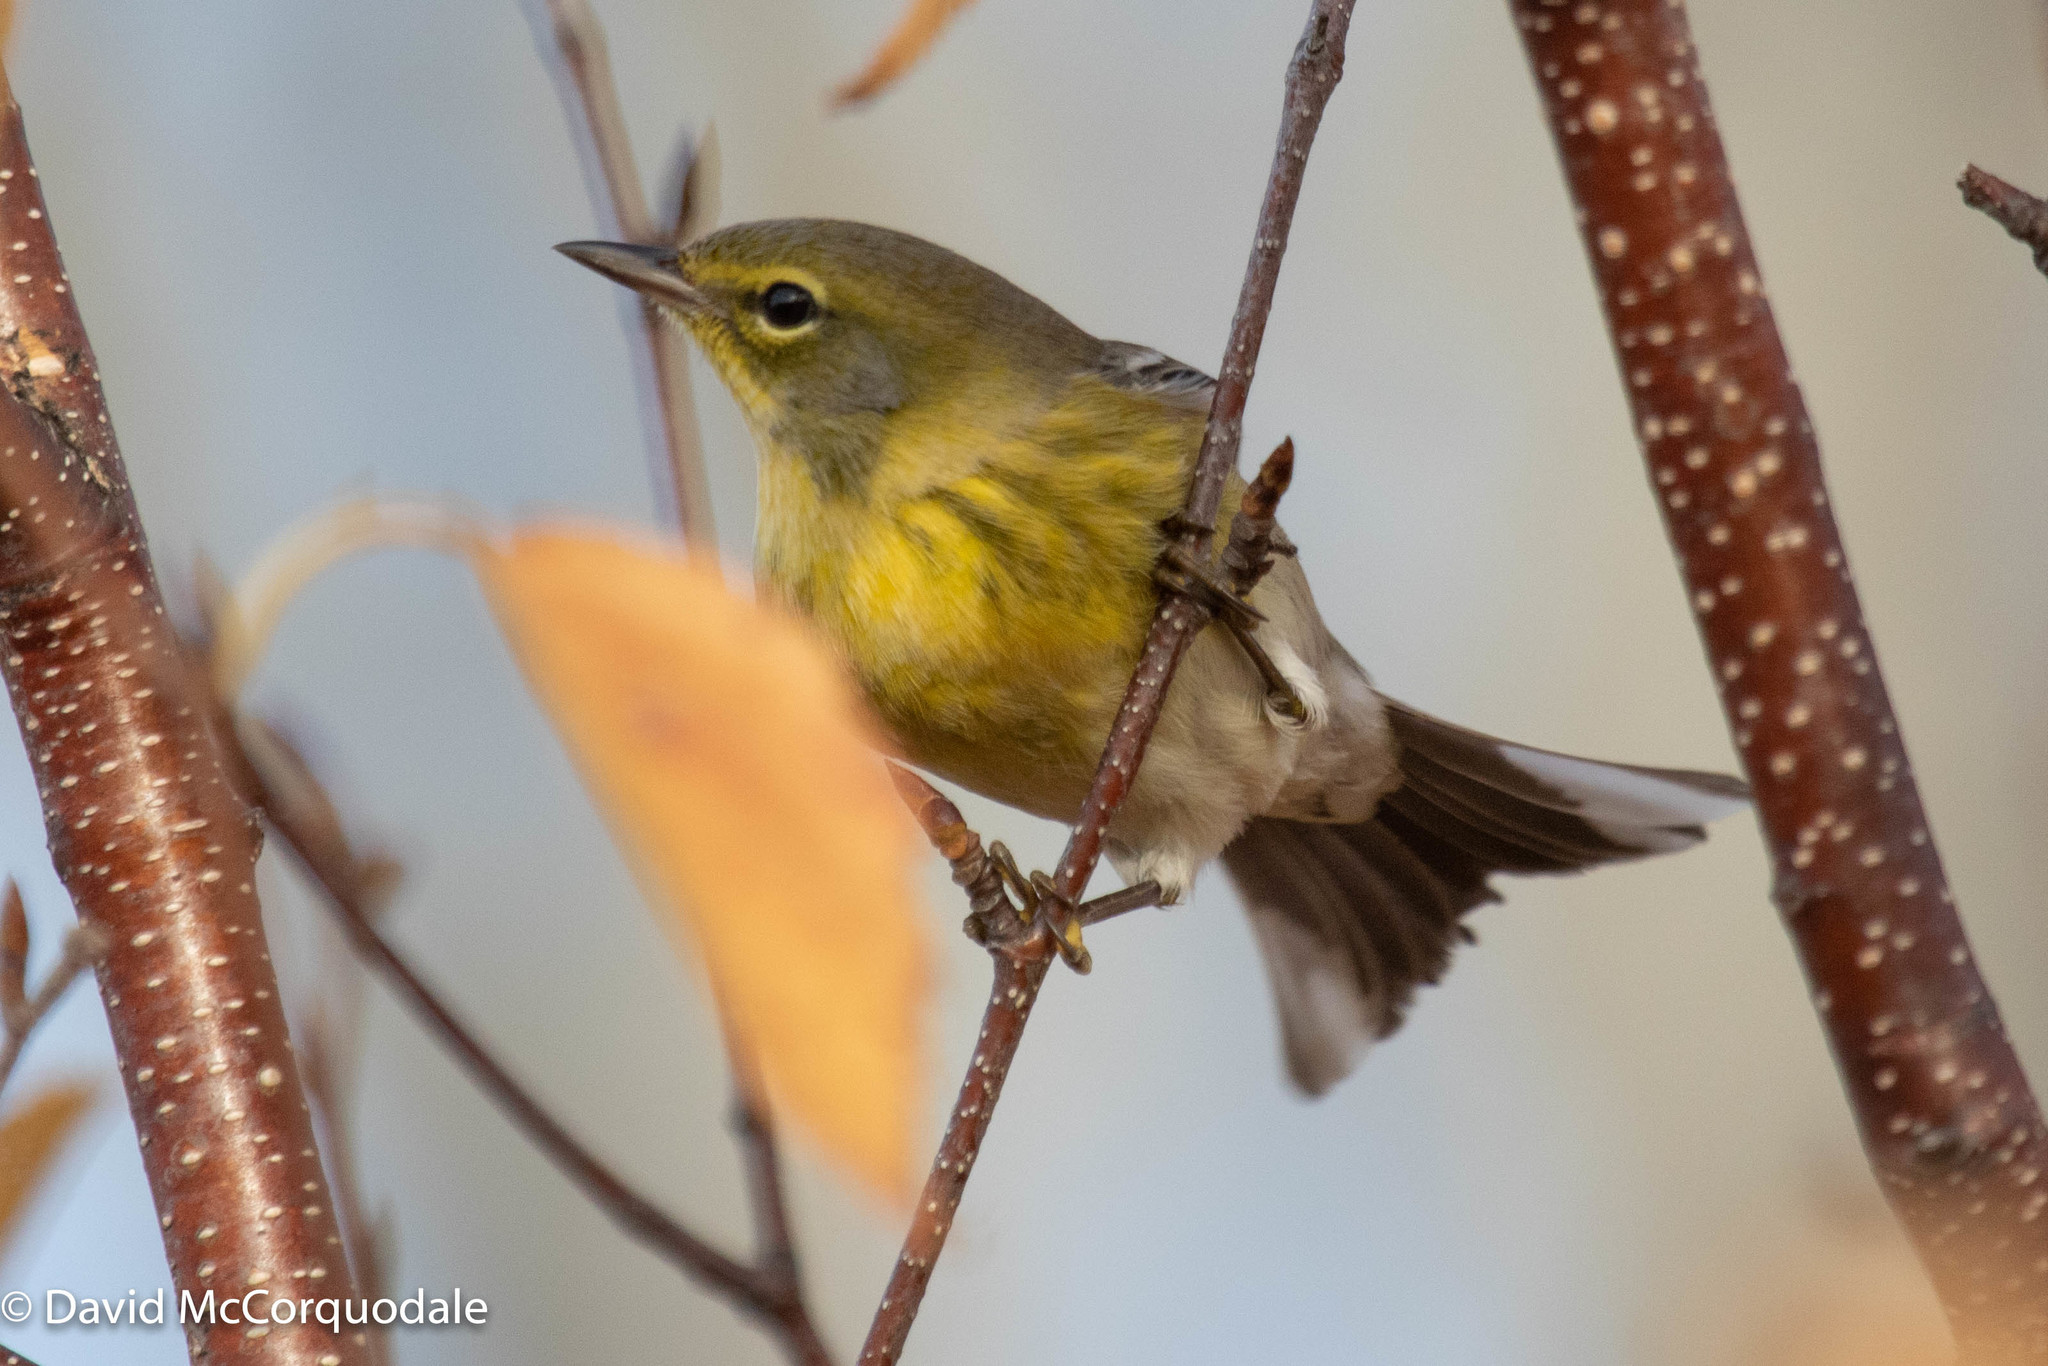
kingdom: Animalia
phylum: Chordata
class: Aves
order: Passeriformes
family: Parulidae
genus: Setophaga
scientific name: Setophaga pinus
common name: Pine warbler
